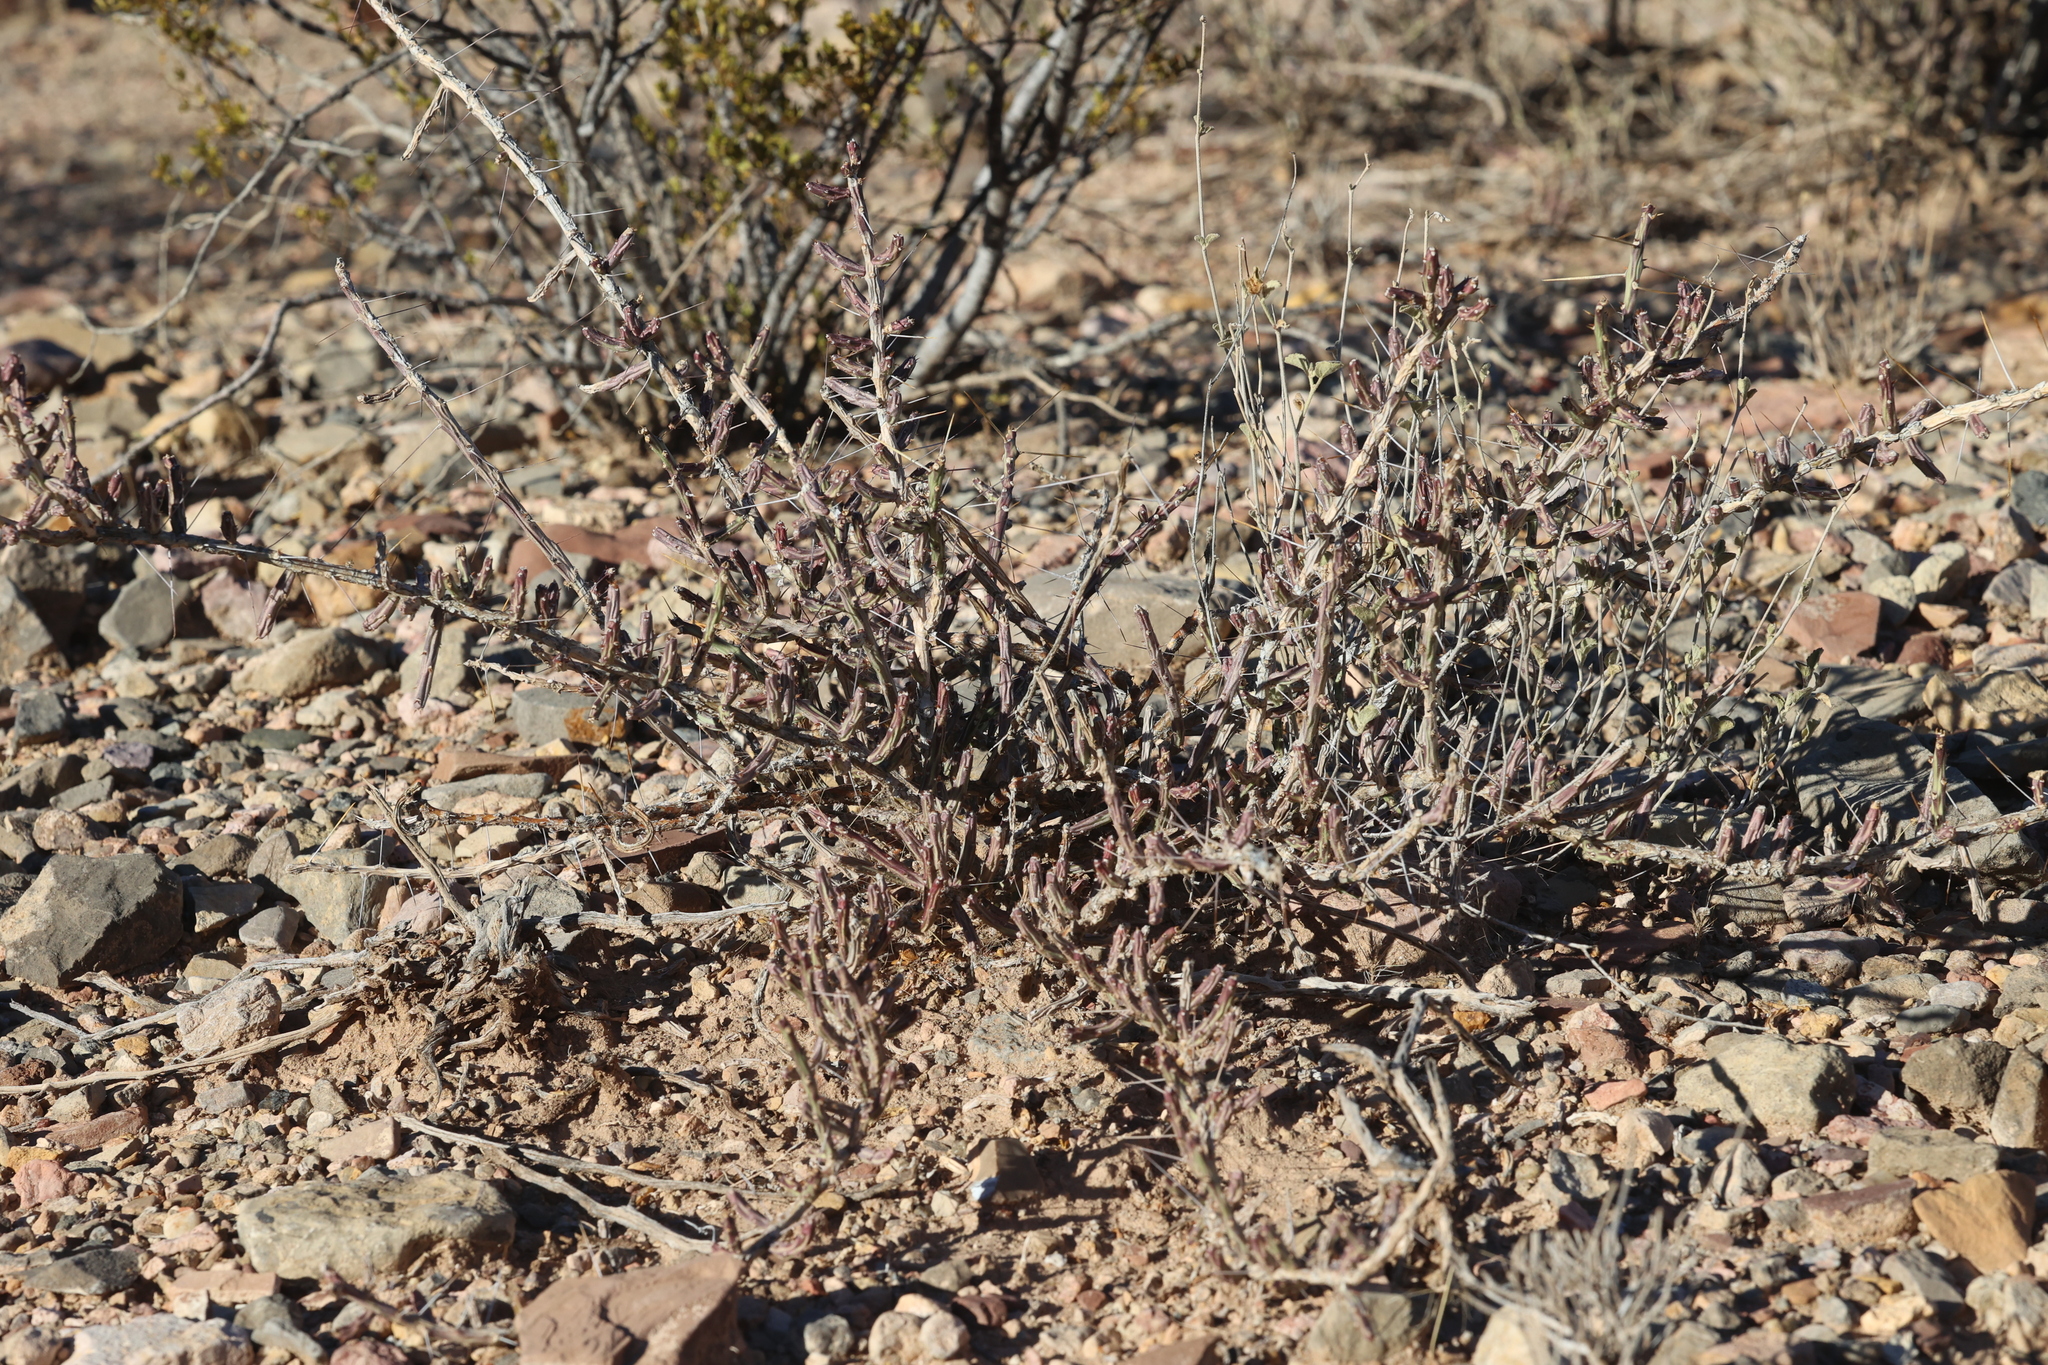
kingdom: Plantae
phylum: Tracheophyta
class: Magnoliopsida
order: Caryophyllales
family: Cactaceae
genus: Cylindropuntia
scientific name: Cylindropuntia leptocaulis
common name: Christmas cactus
